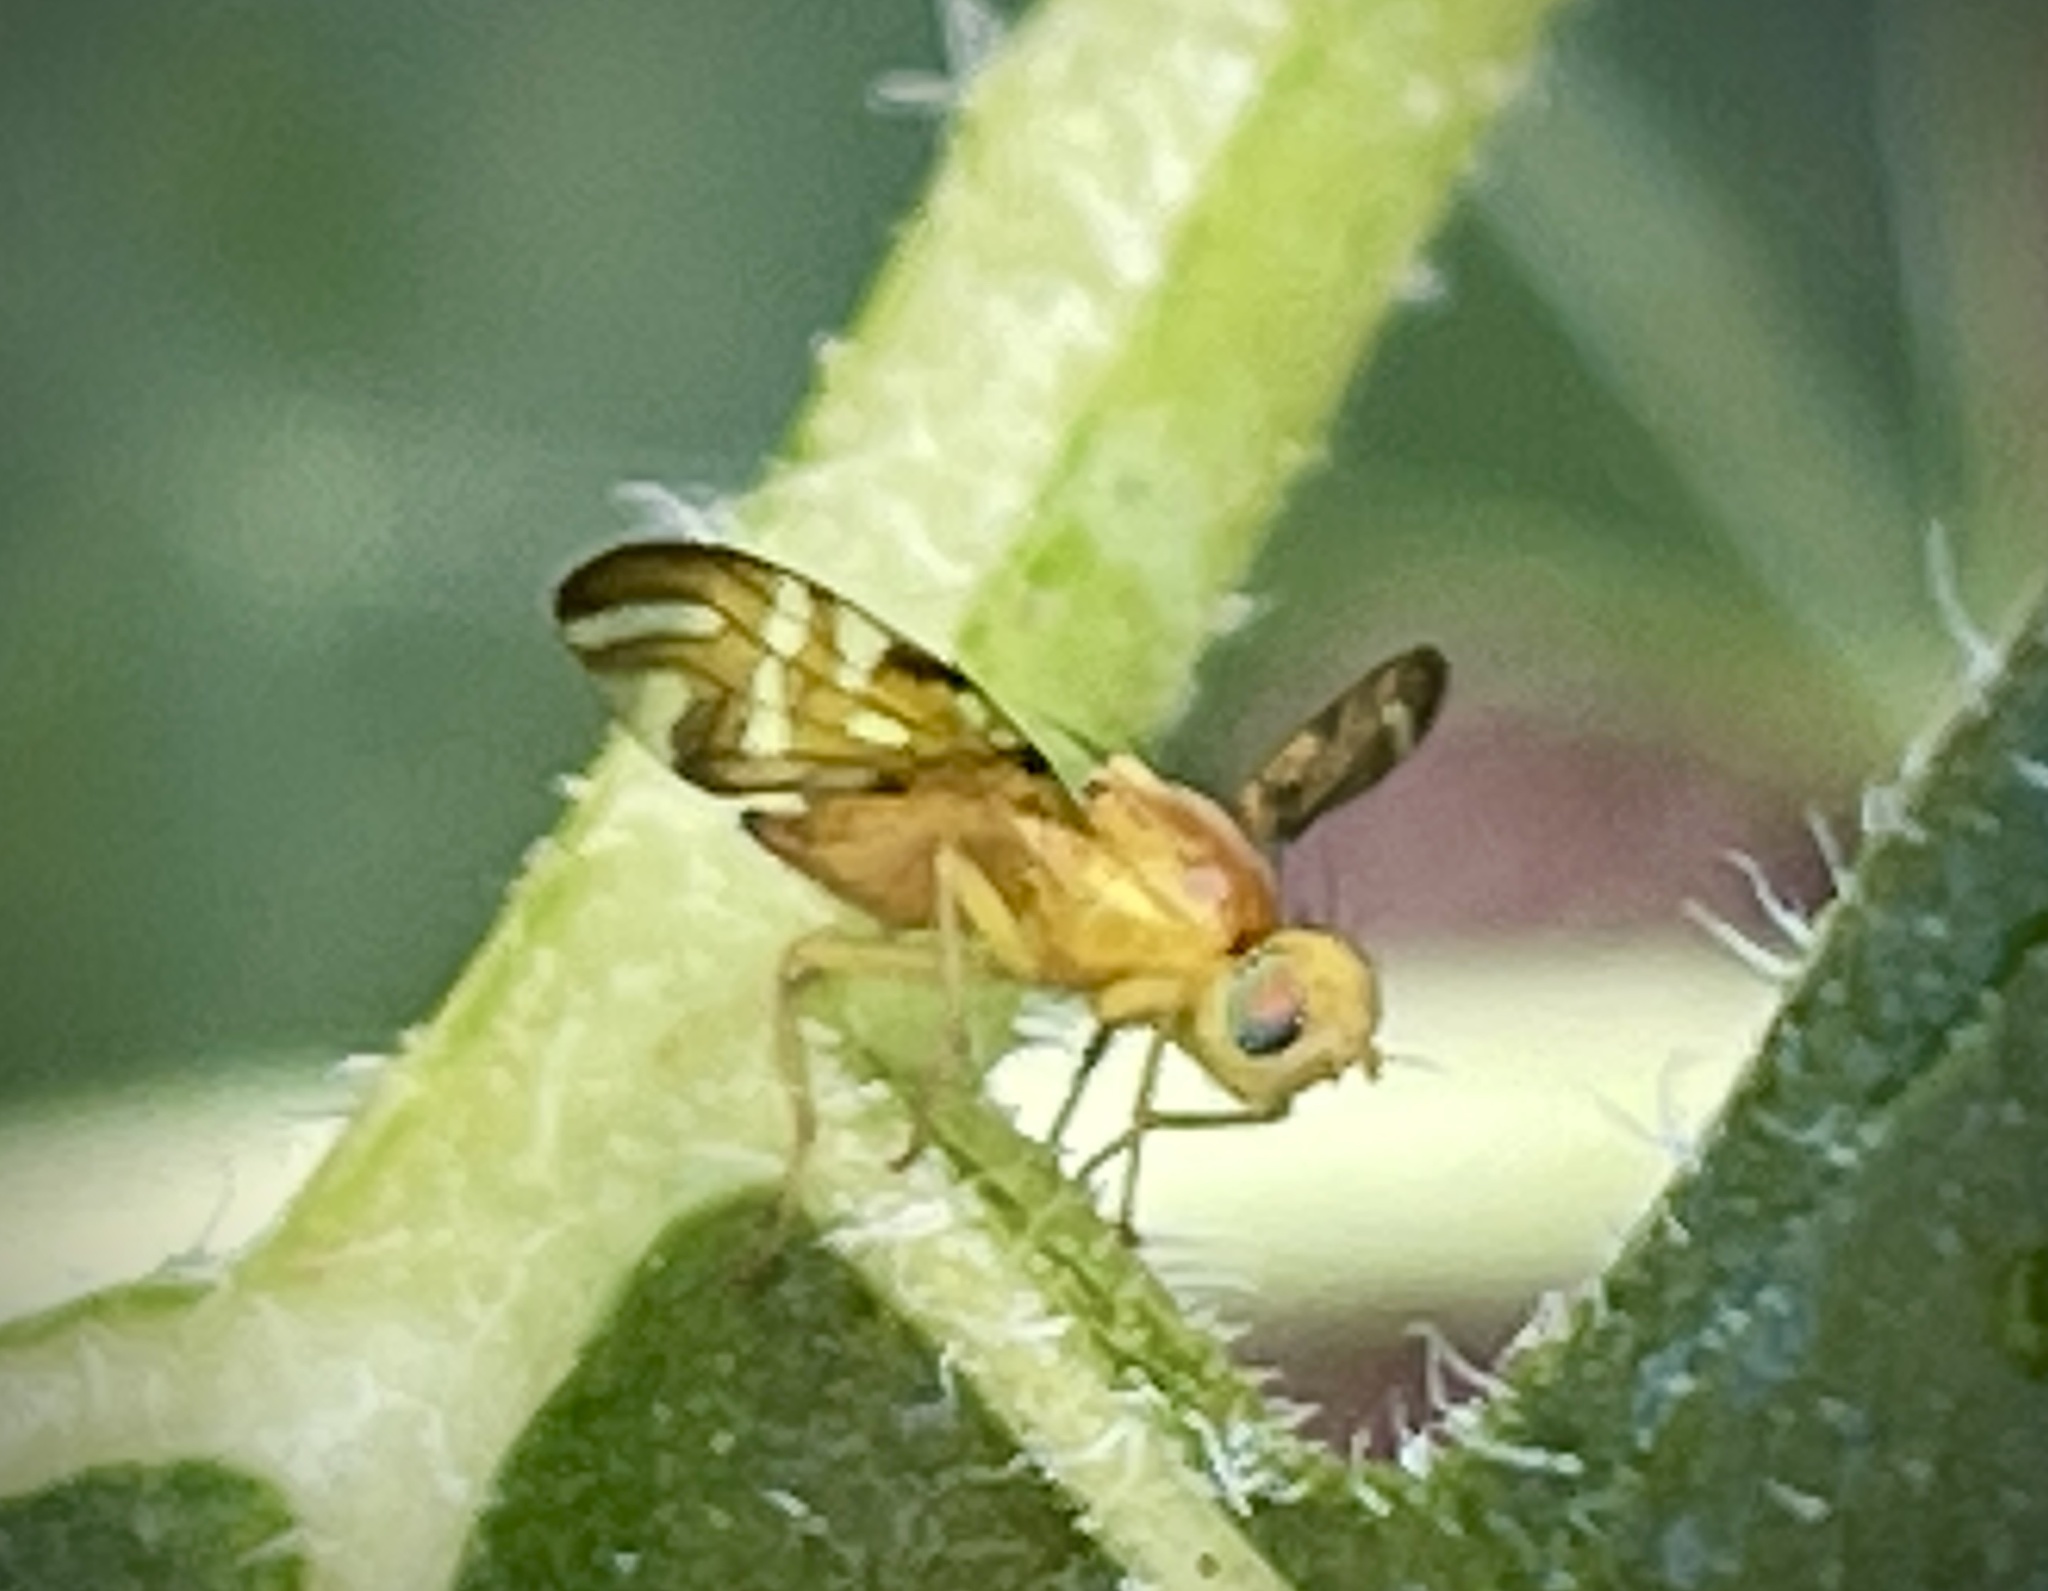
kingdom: Animalia
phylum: Arthropoda
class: Insecta
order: Diptera
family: Tephritidae
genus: Strauzia
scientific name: Strauzia longipennis
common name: Sunflower maggot
